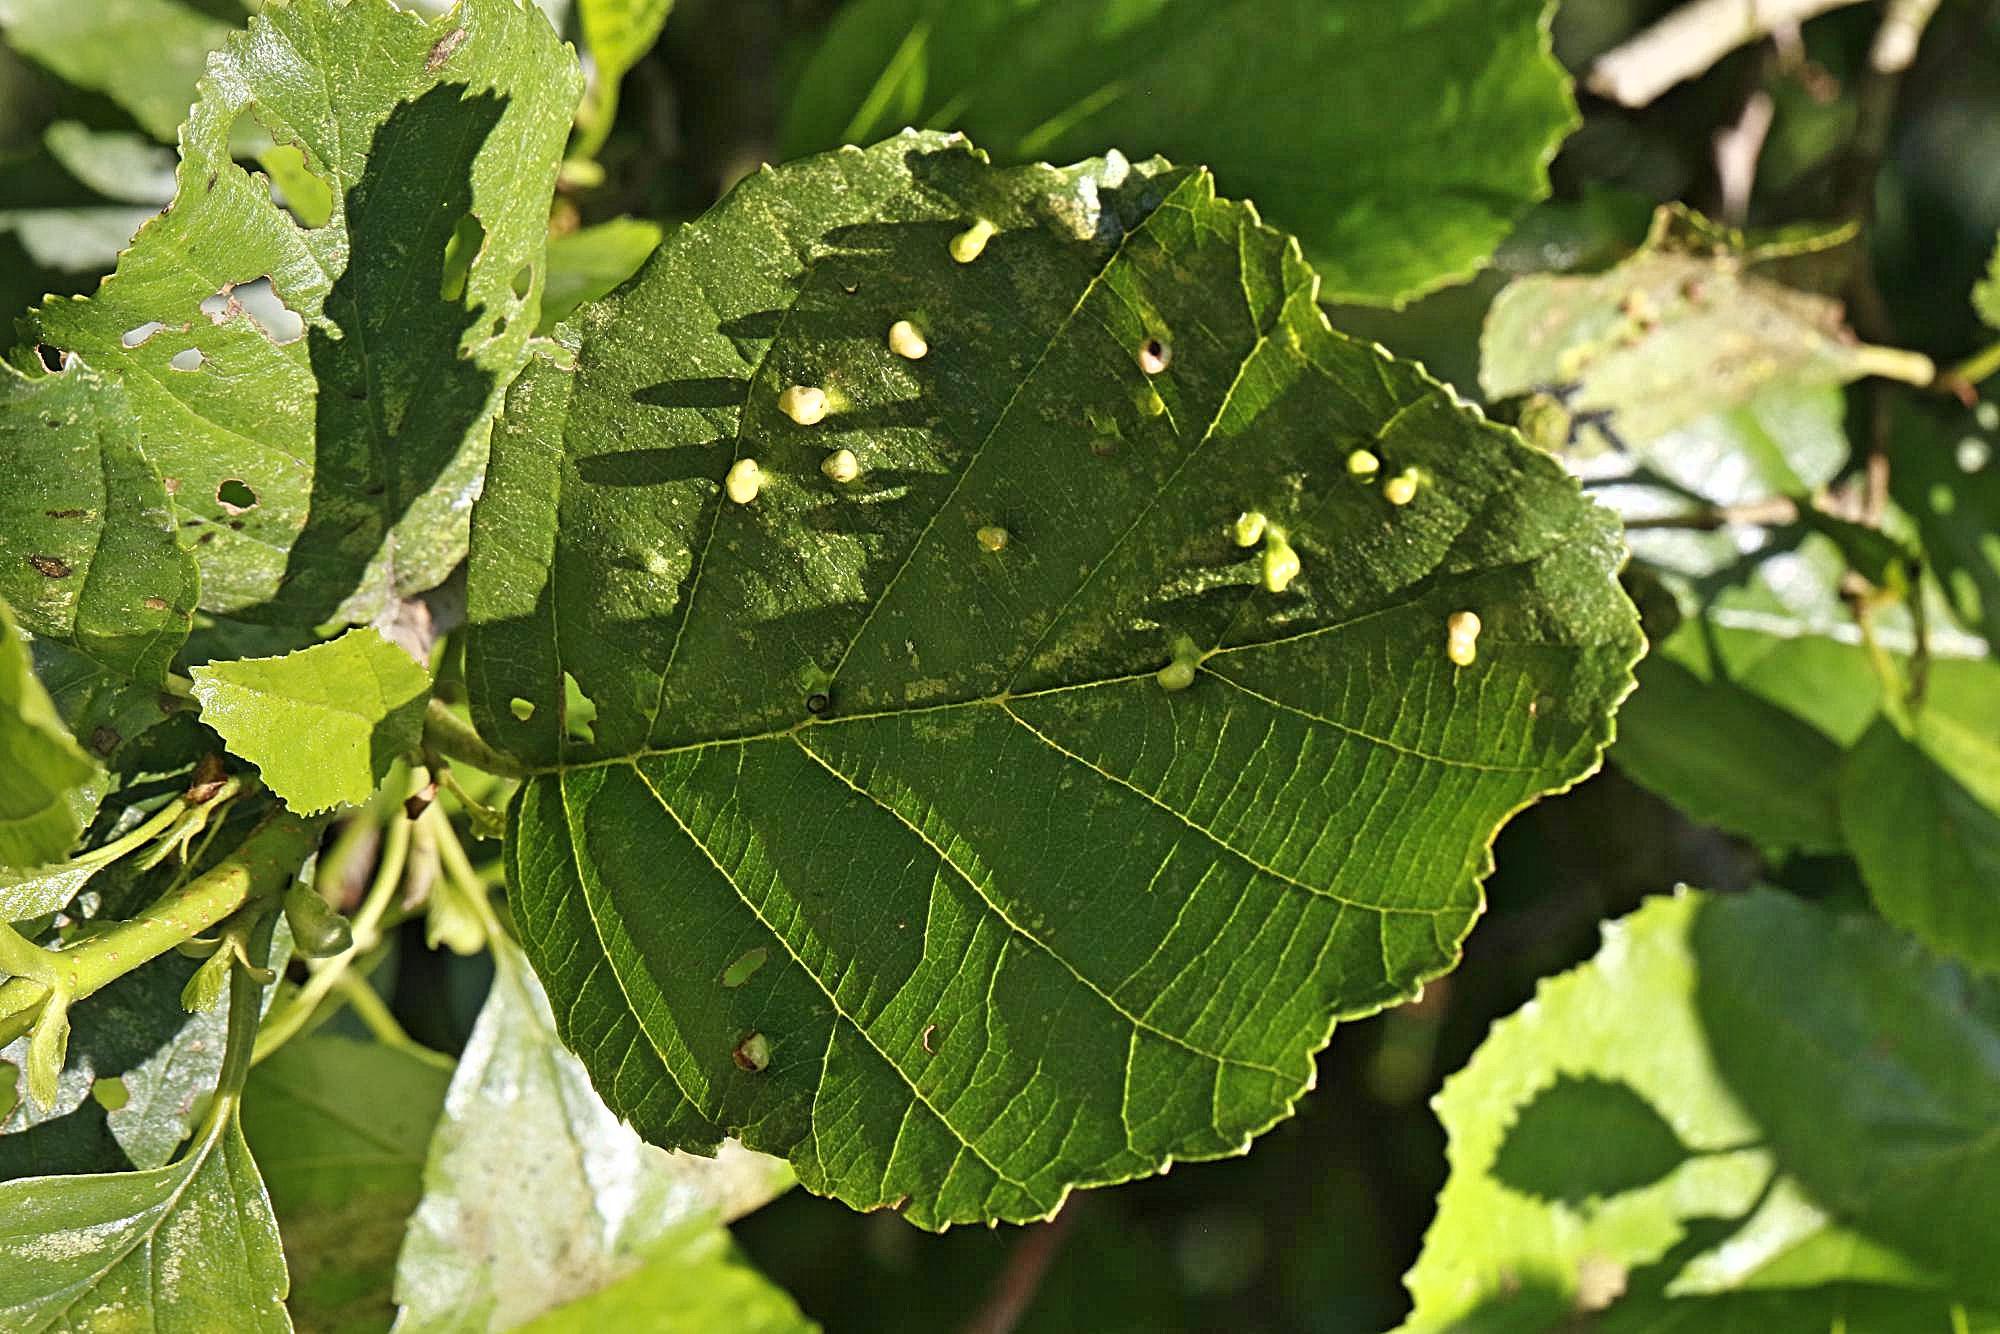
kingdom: Animalia
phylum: Arthropoda
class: Arachnida
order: Trombidiformes
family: Eriophyidae
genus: Eriophyes
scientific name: Eriophyes laevis
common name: Alder leaf gall mite
